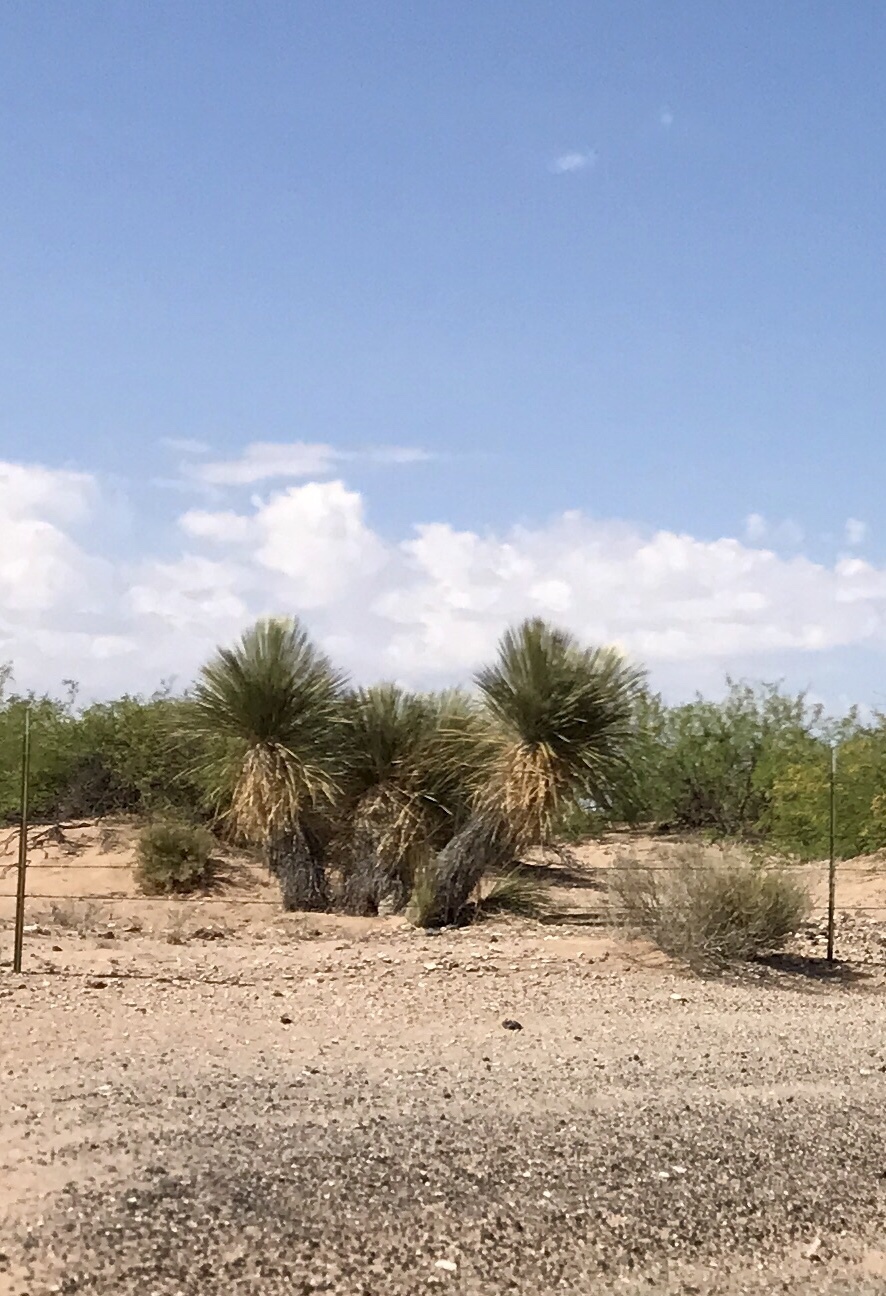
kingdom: Plantae
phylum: Tracheophyta
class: Liliopsida
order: Asparagales
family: Asparagaceae
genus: Yucca
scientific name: Yucca elata
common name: Palmella
